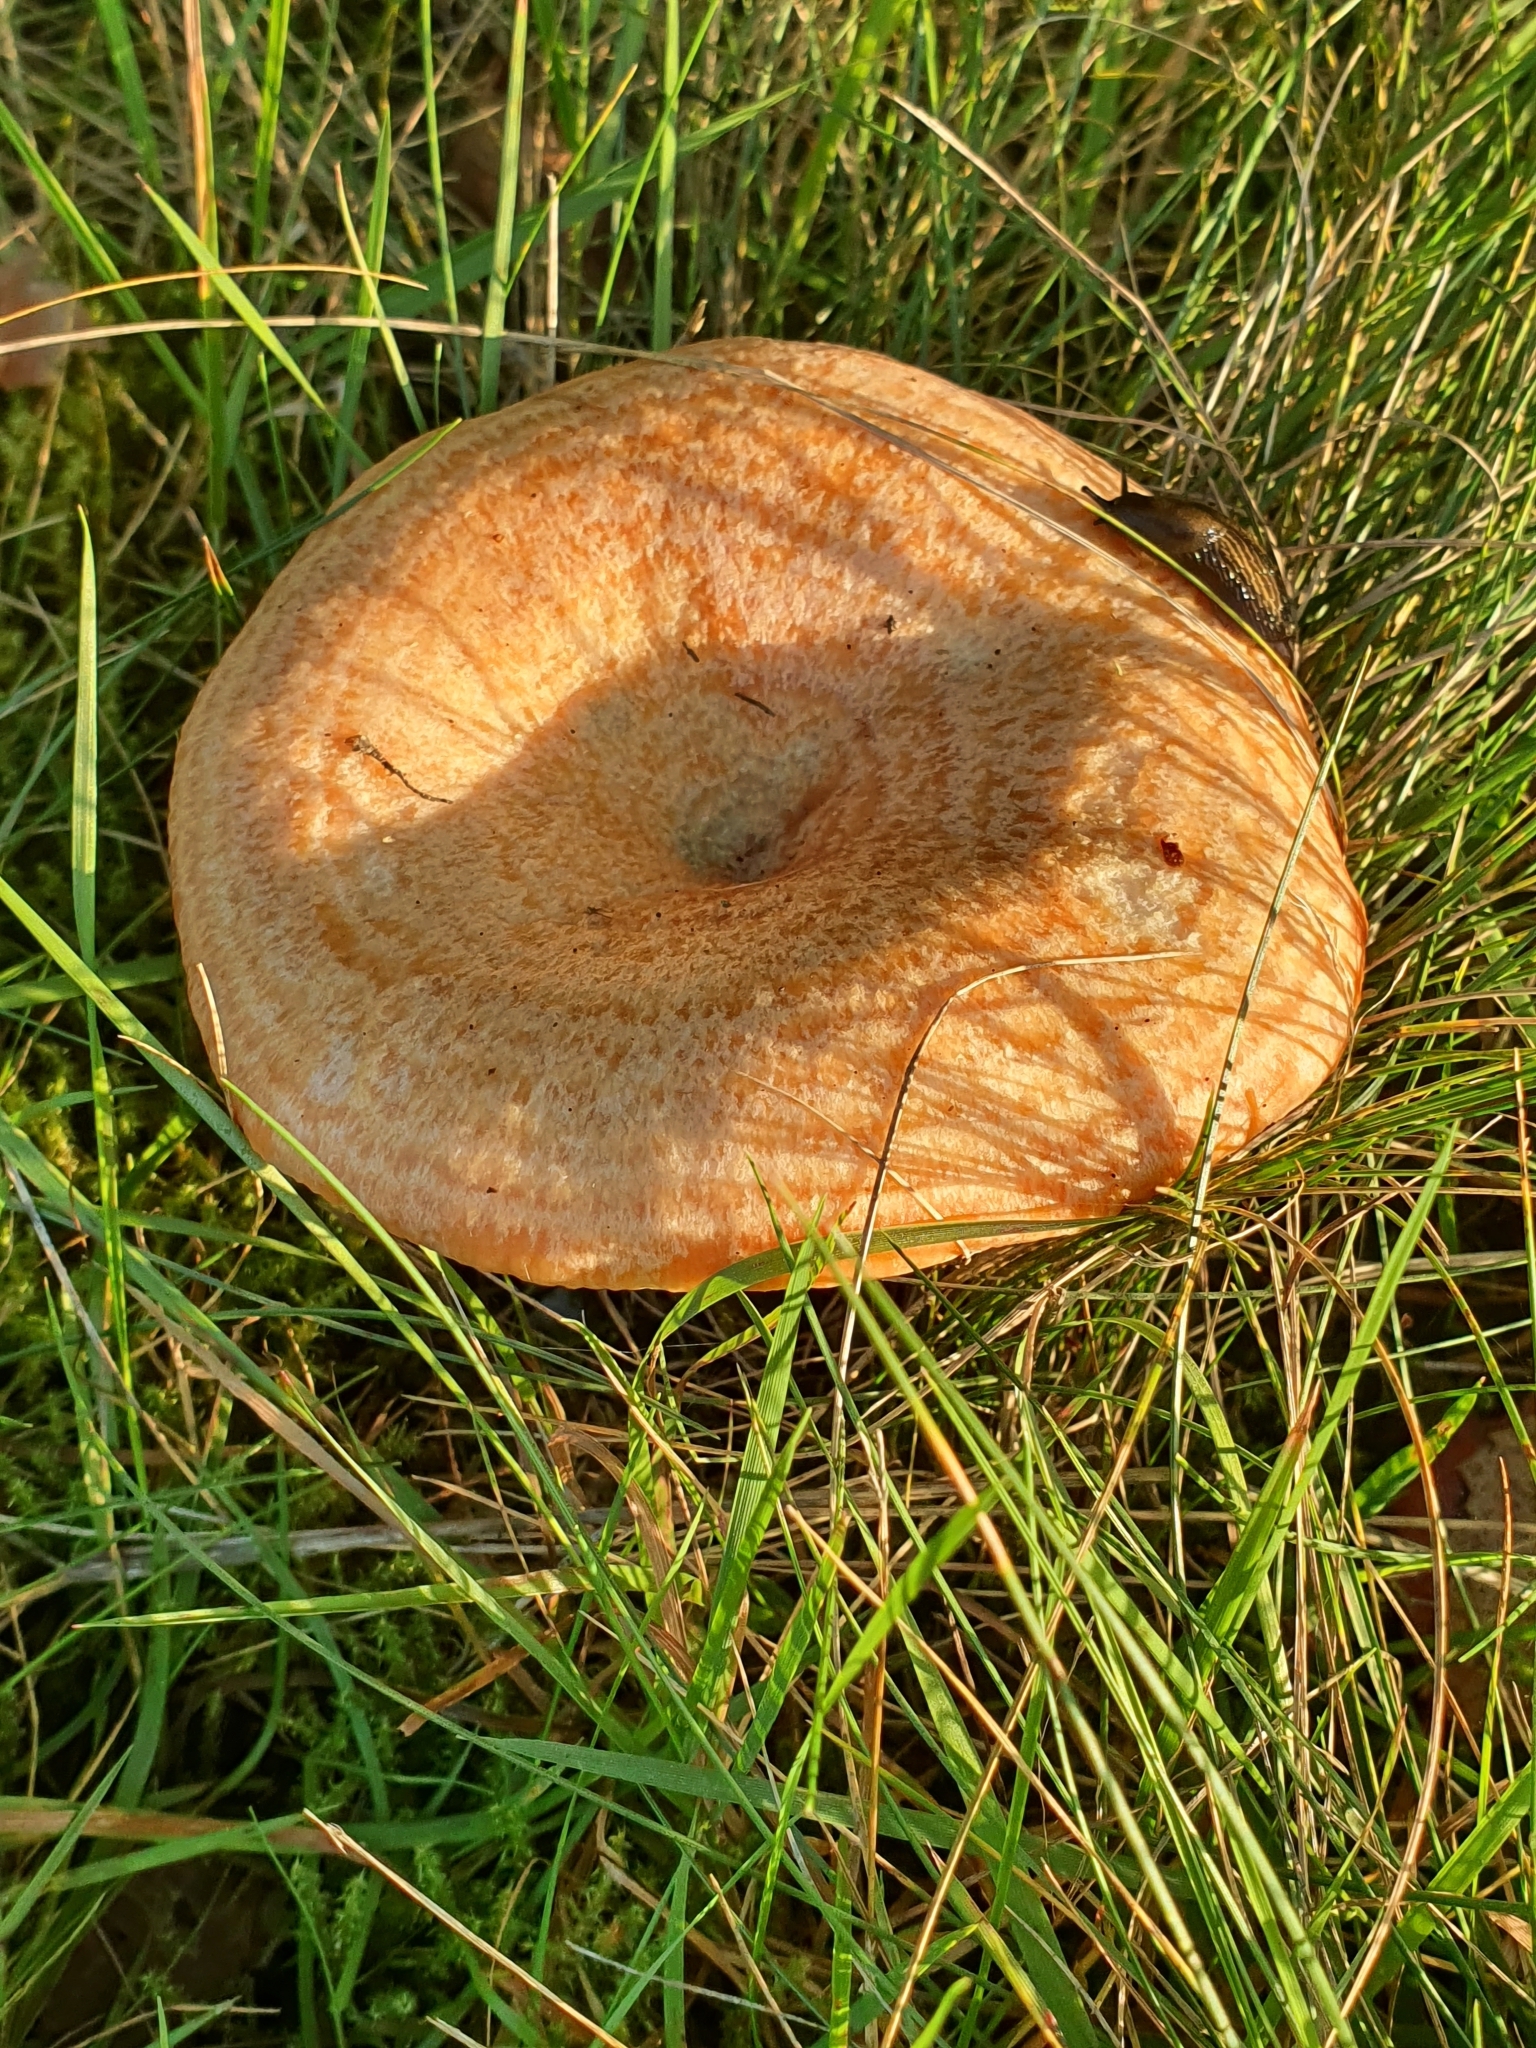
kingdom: Fungi
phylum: Basidiomycota
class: Agaricomycetes
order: Russulales
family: Russulaceae
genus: Lactarius
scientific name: Lactarius deliciosus
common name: Saffron milk-cap
